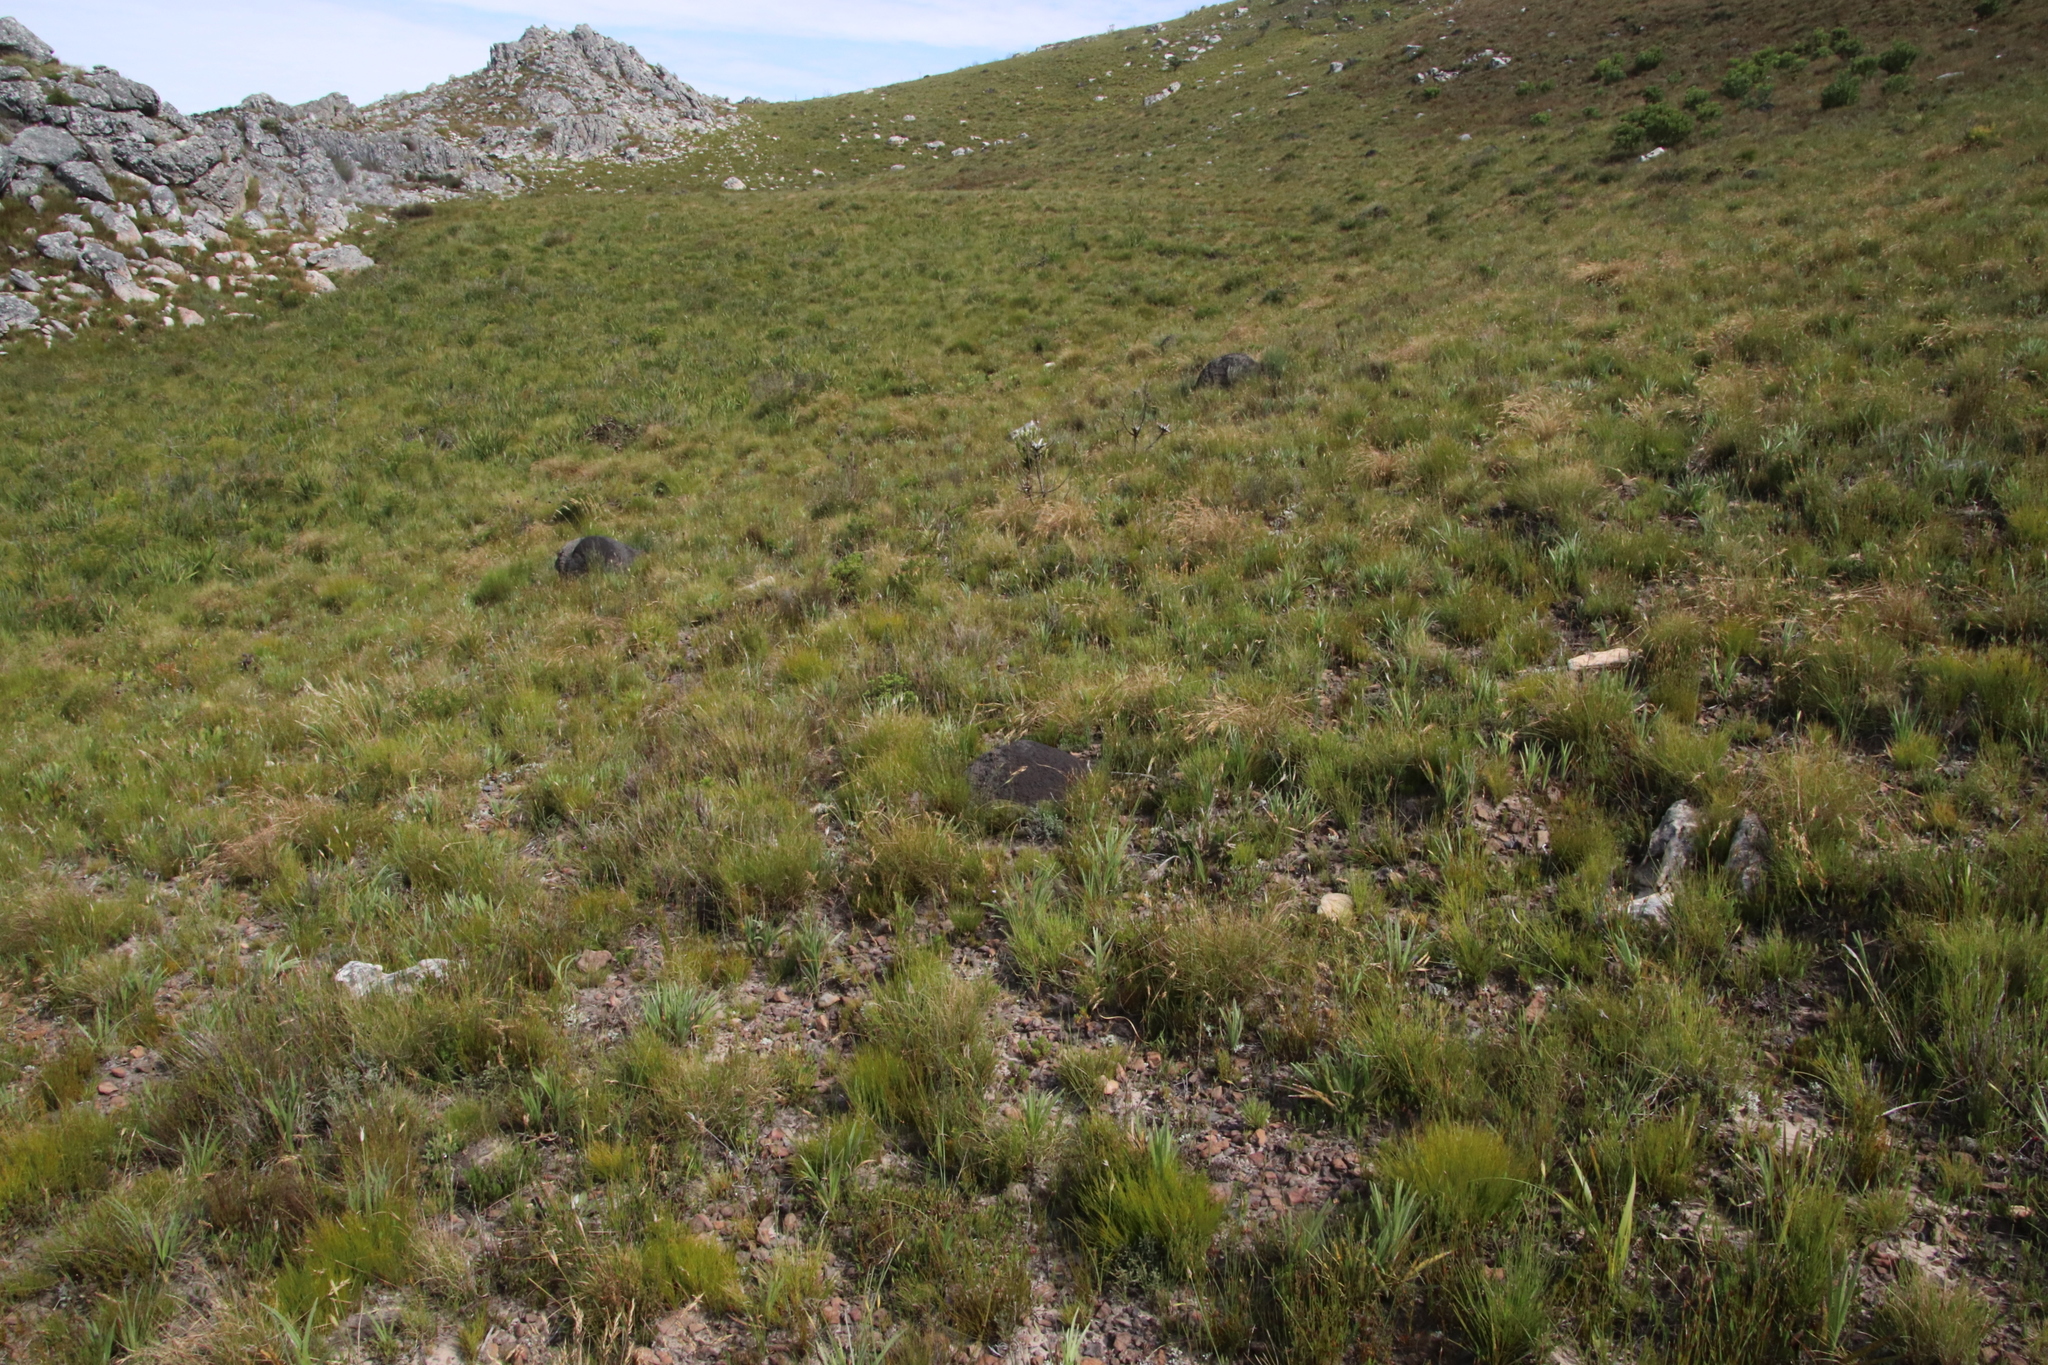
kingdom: Animalia
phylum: Arthropoda
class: Insecta
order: Blattodea
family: Termitidae
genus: Amitermes
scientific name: Amitermes hastatus
